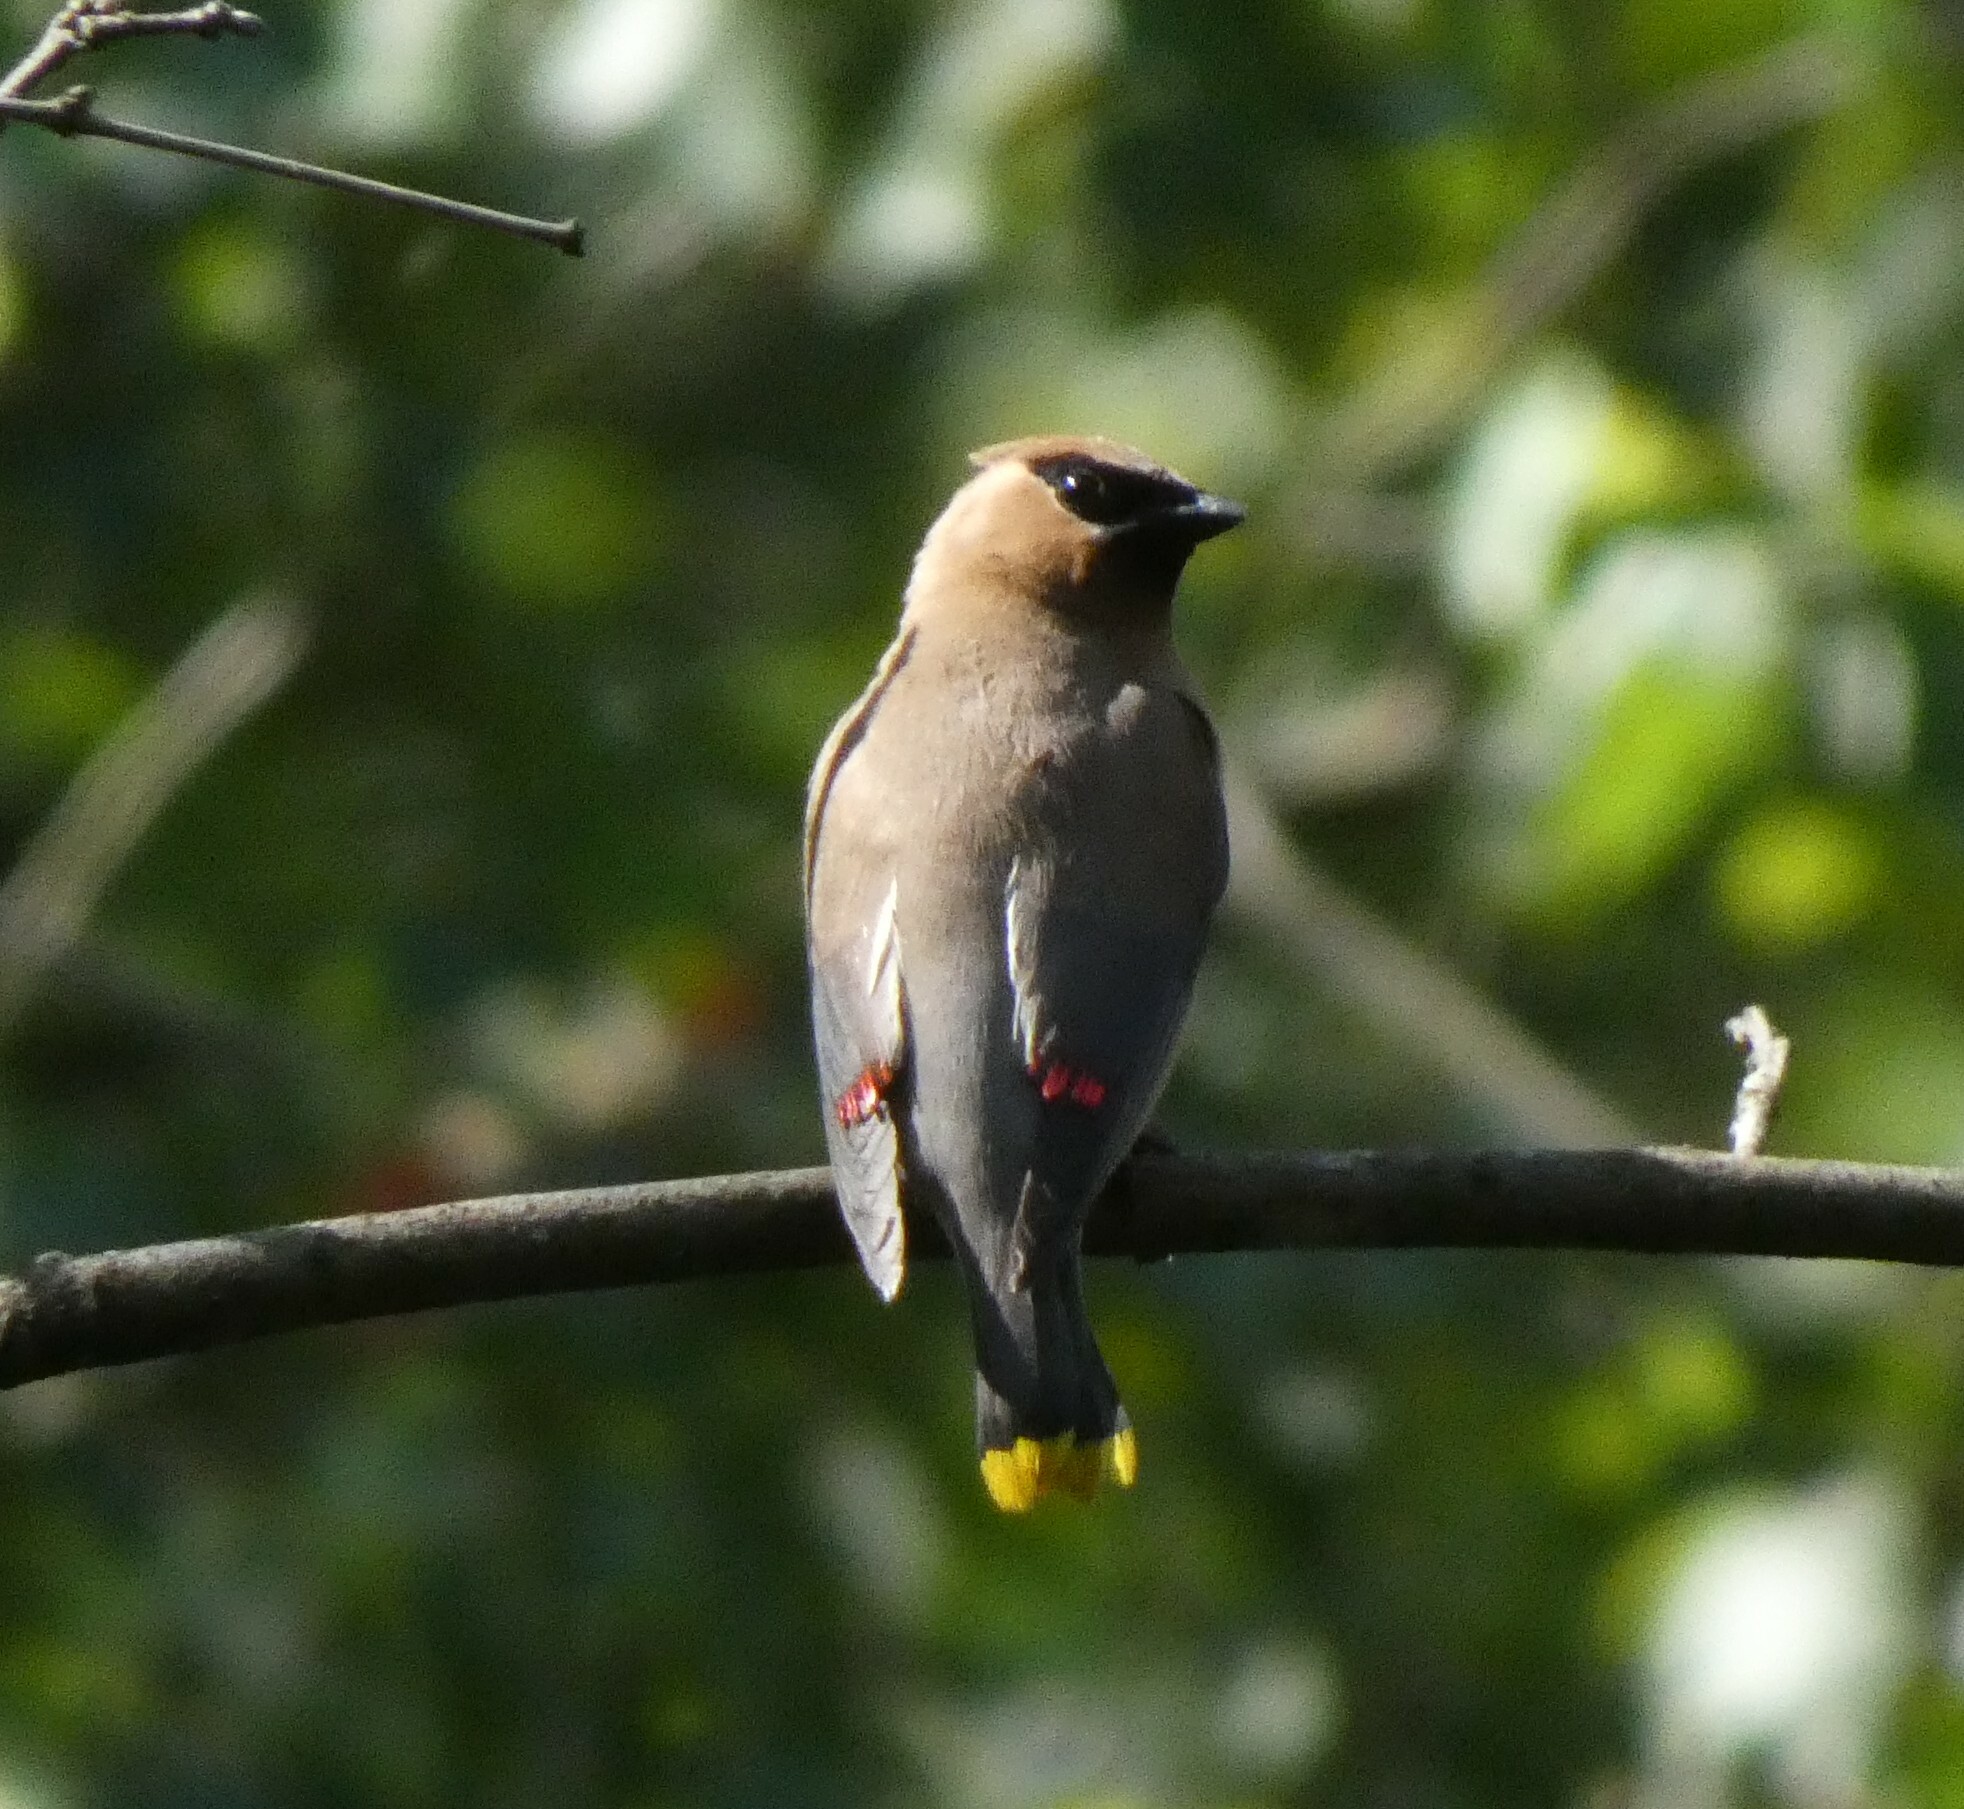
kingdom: Animalia
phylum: Chordata
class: Aves
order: Passeriformes
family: Bombycillidae
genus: Bombycilla
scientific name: Bombycilla cedrorum
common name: Cedar waxwing
